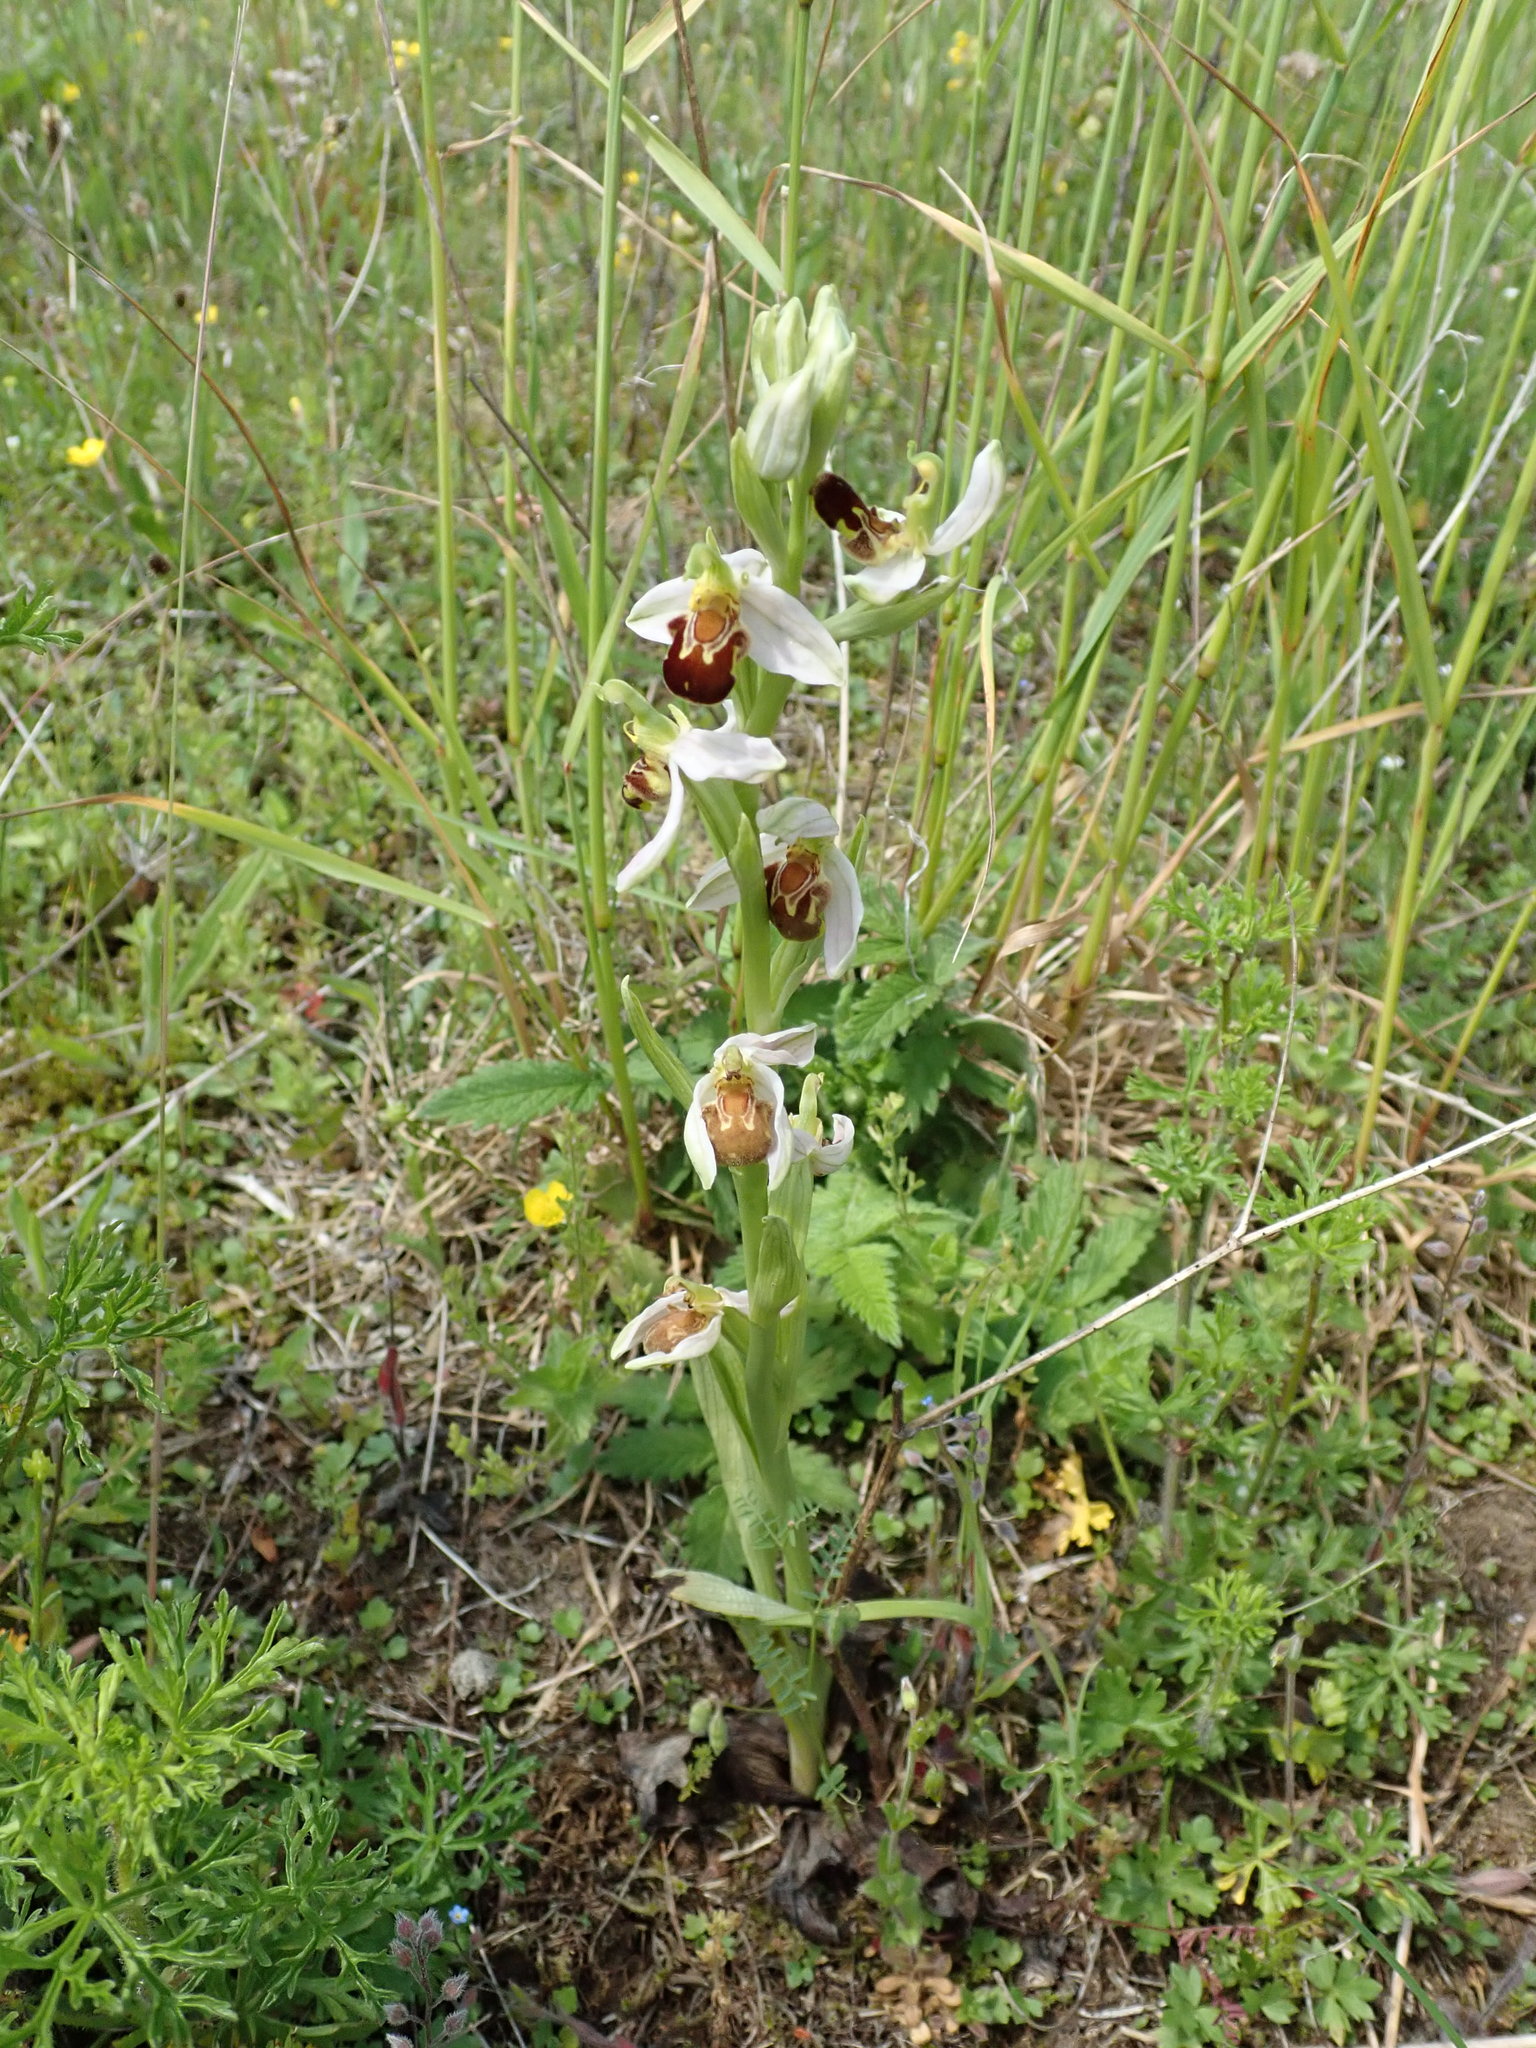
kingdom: Plantae
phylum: Tracheophyta
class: Liliopsida
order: Asparagales
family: Orchidaceae
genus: Ophrys
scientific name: Ophrys apifera
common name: Bee orchid
